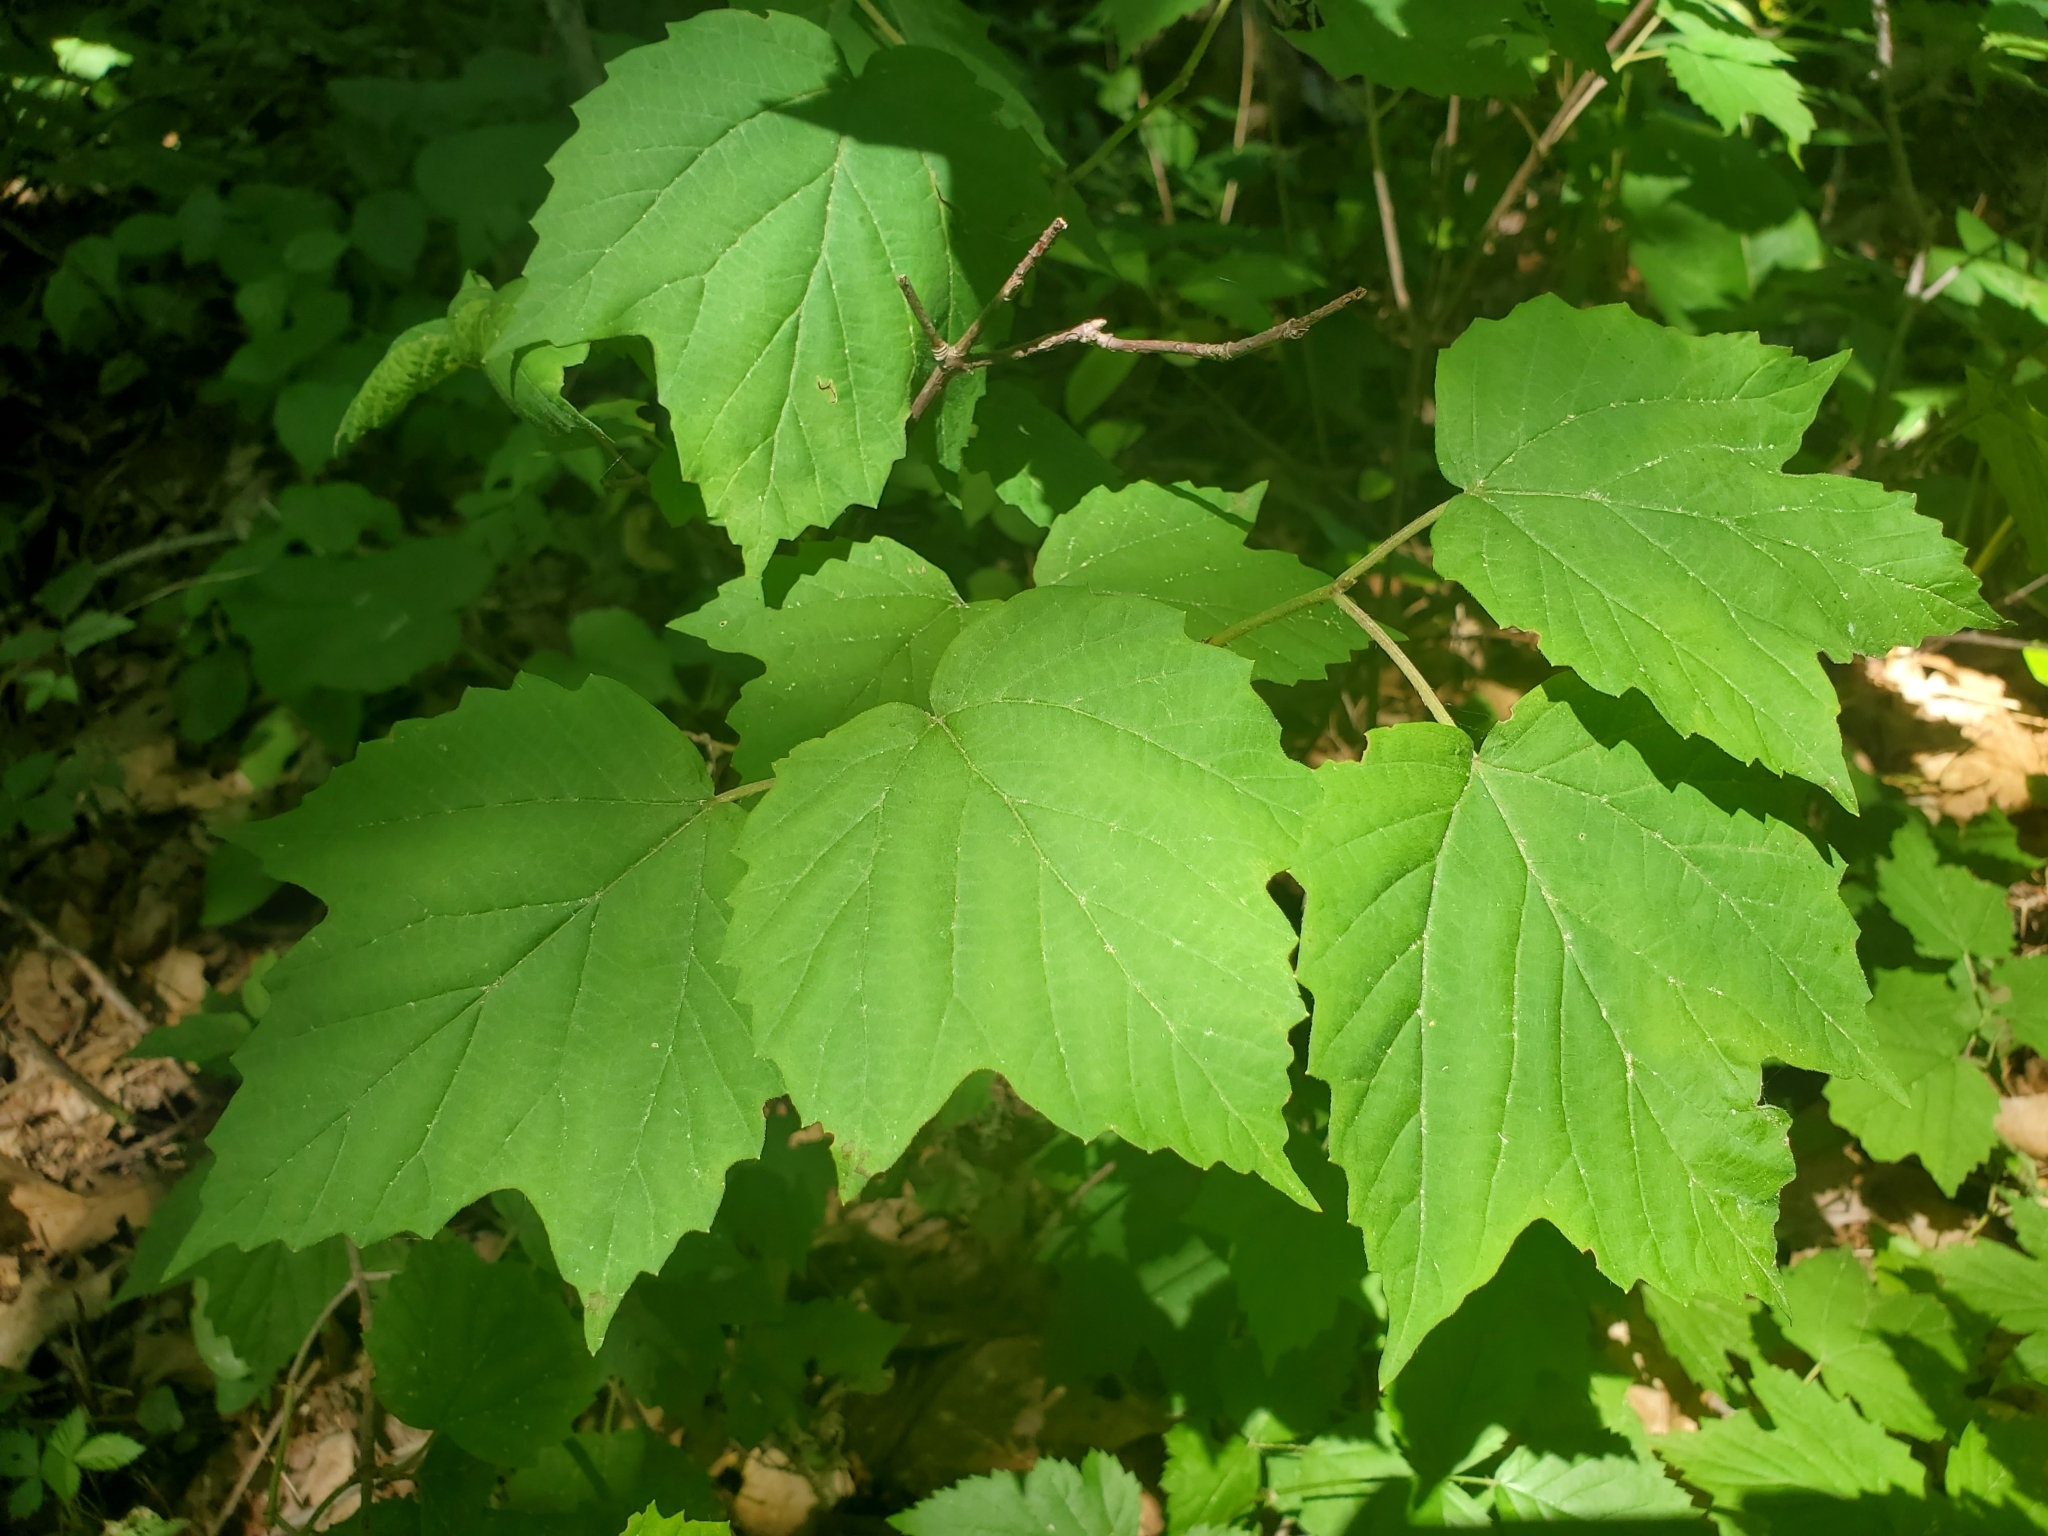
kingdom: Plantae
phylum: Tracheophyta
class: Magnoliopsida
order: Dipsacales
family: Viburnaceae
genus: Viburnum
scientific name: Viburnum acerifolium
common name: Dockmackie
